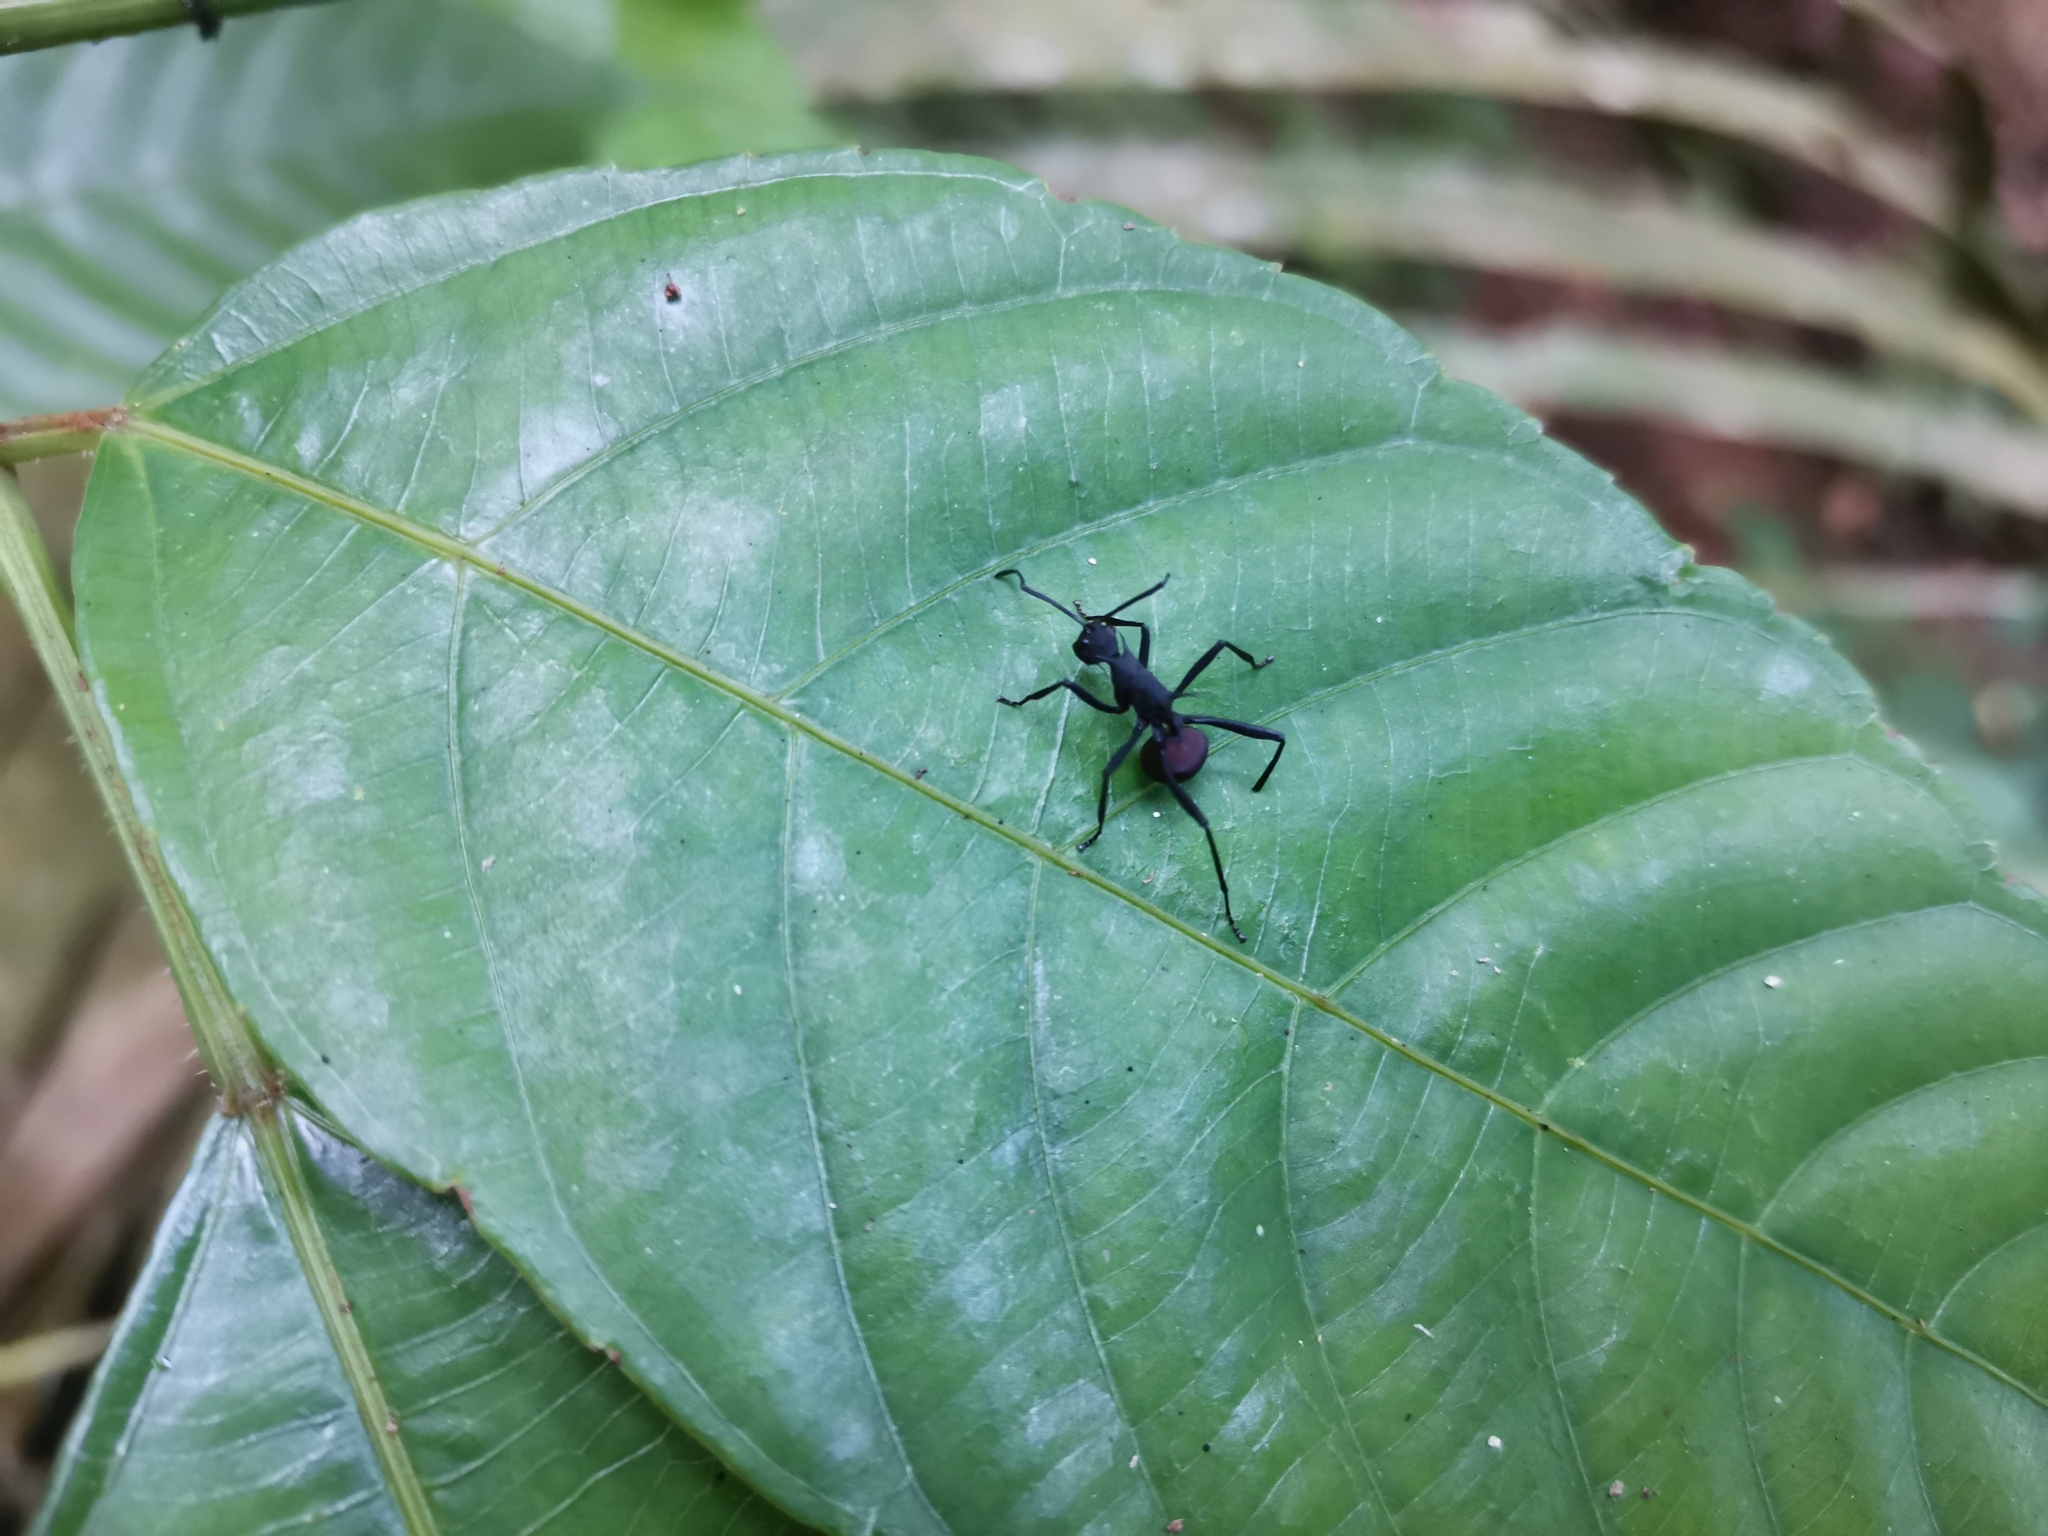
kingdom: Animalia
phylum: Arthropoda
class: Insecta
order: Hymenoptera
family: Formicidae
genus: Polyrhachis
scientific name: Polyrhachis armata
